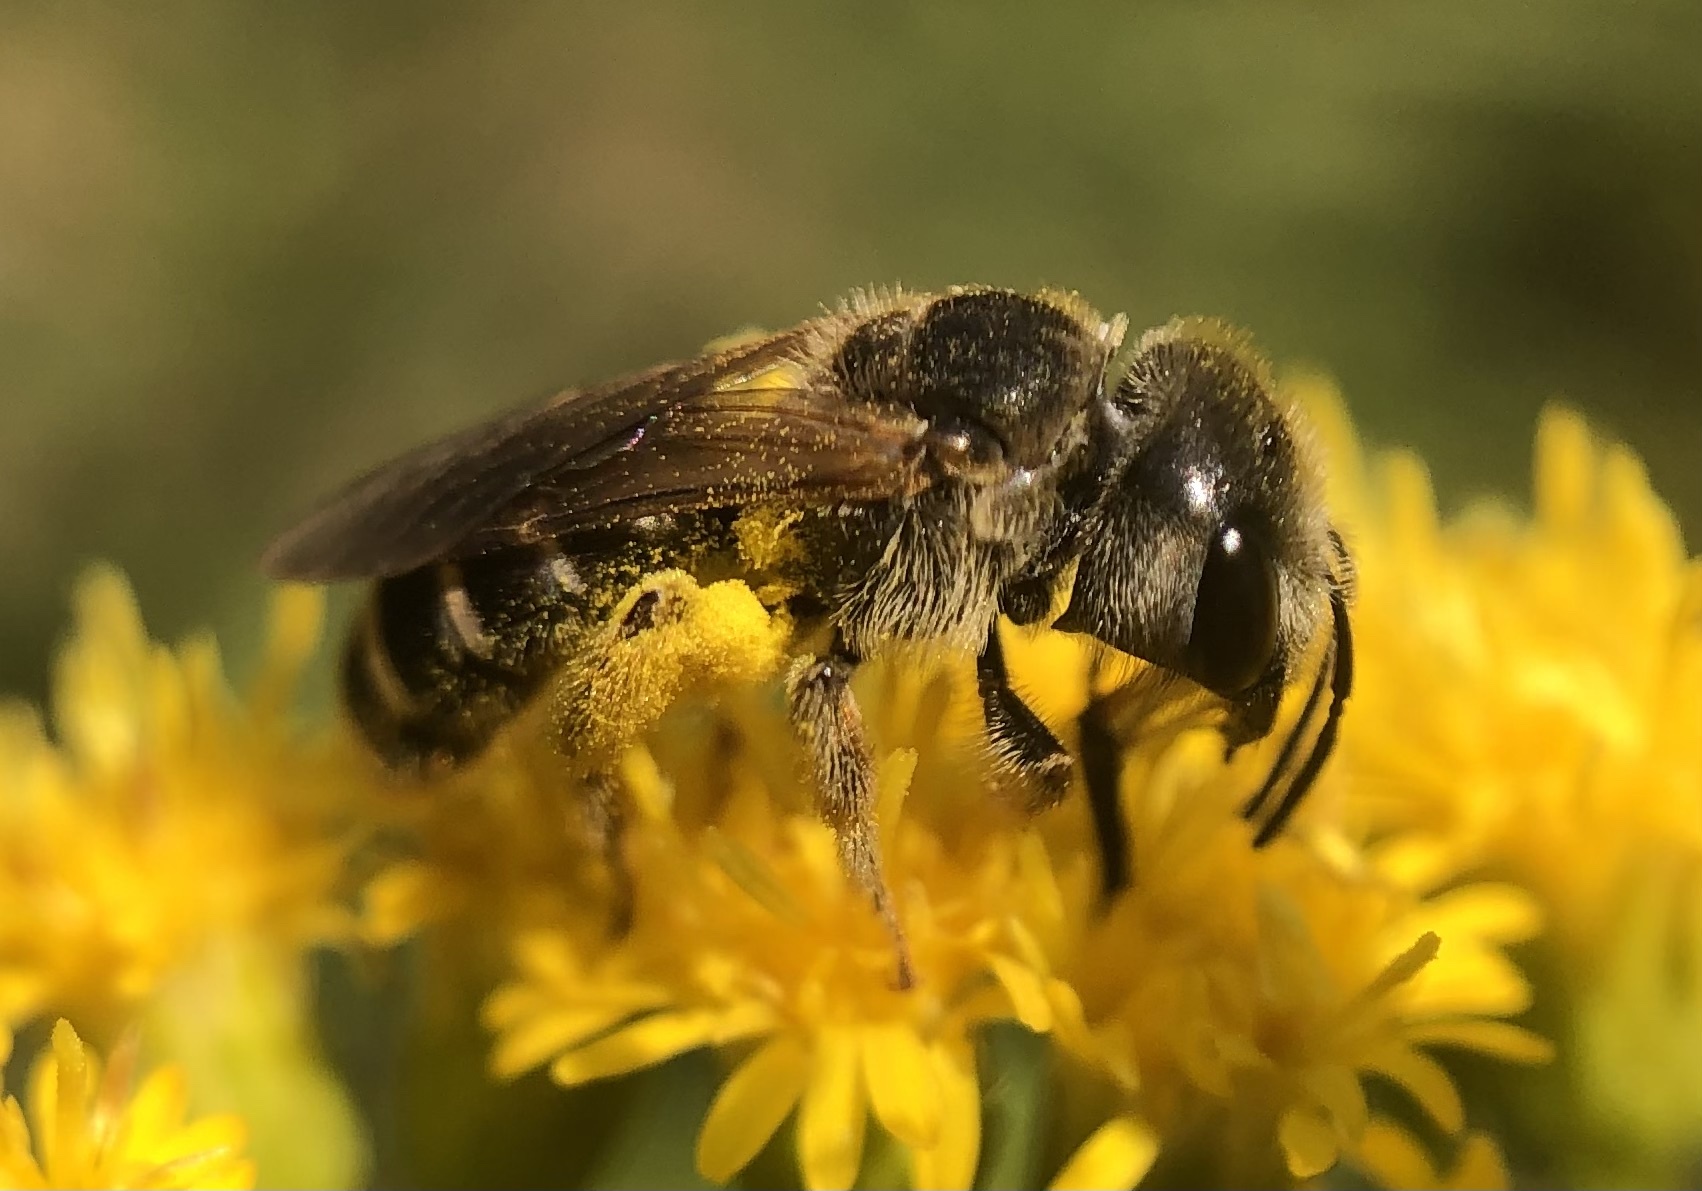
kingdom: Animalia
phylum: Arthropoda
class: Insecta
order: Hymenoptera
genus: Odontalictus
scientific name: Odontalictus
